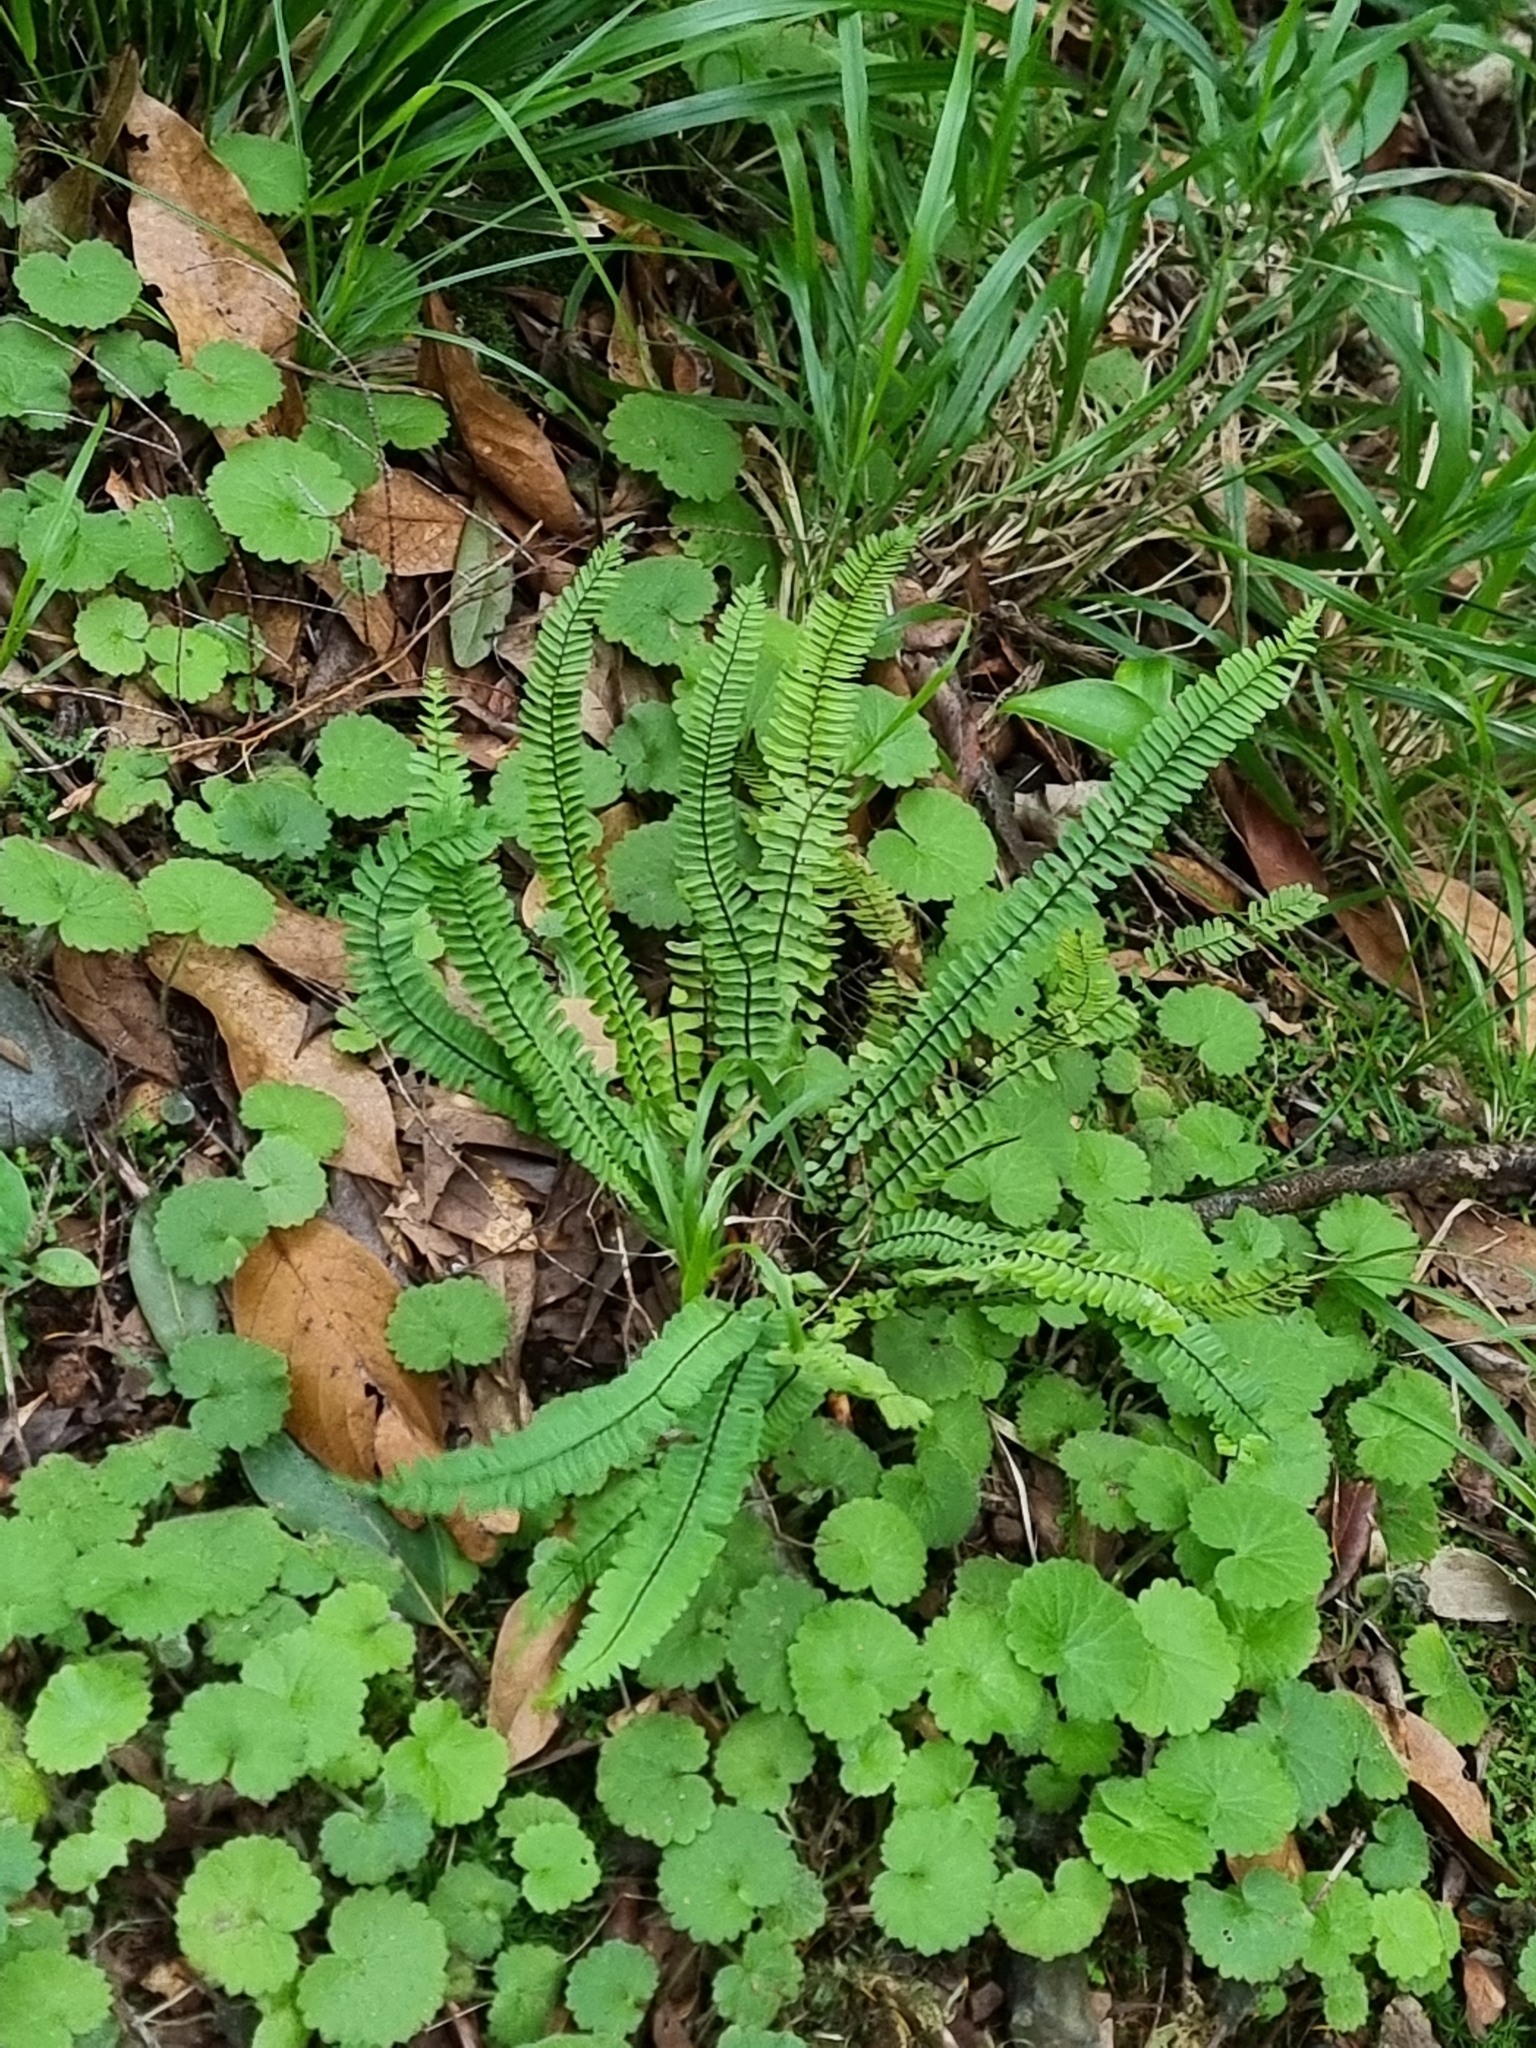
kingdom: Plantae
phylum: Tracheophyta
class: Polypodiopsida
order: Polypodiales
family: Aspleniaceae
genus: Asplenium
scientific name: Asplenium monanthes
